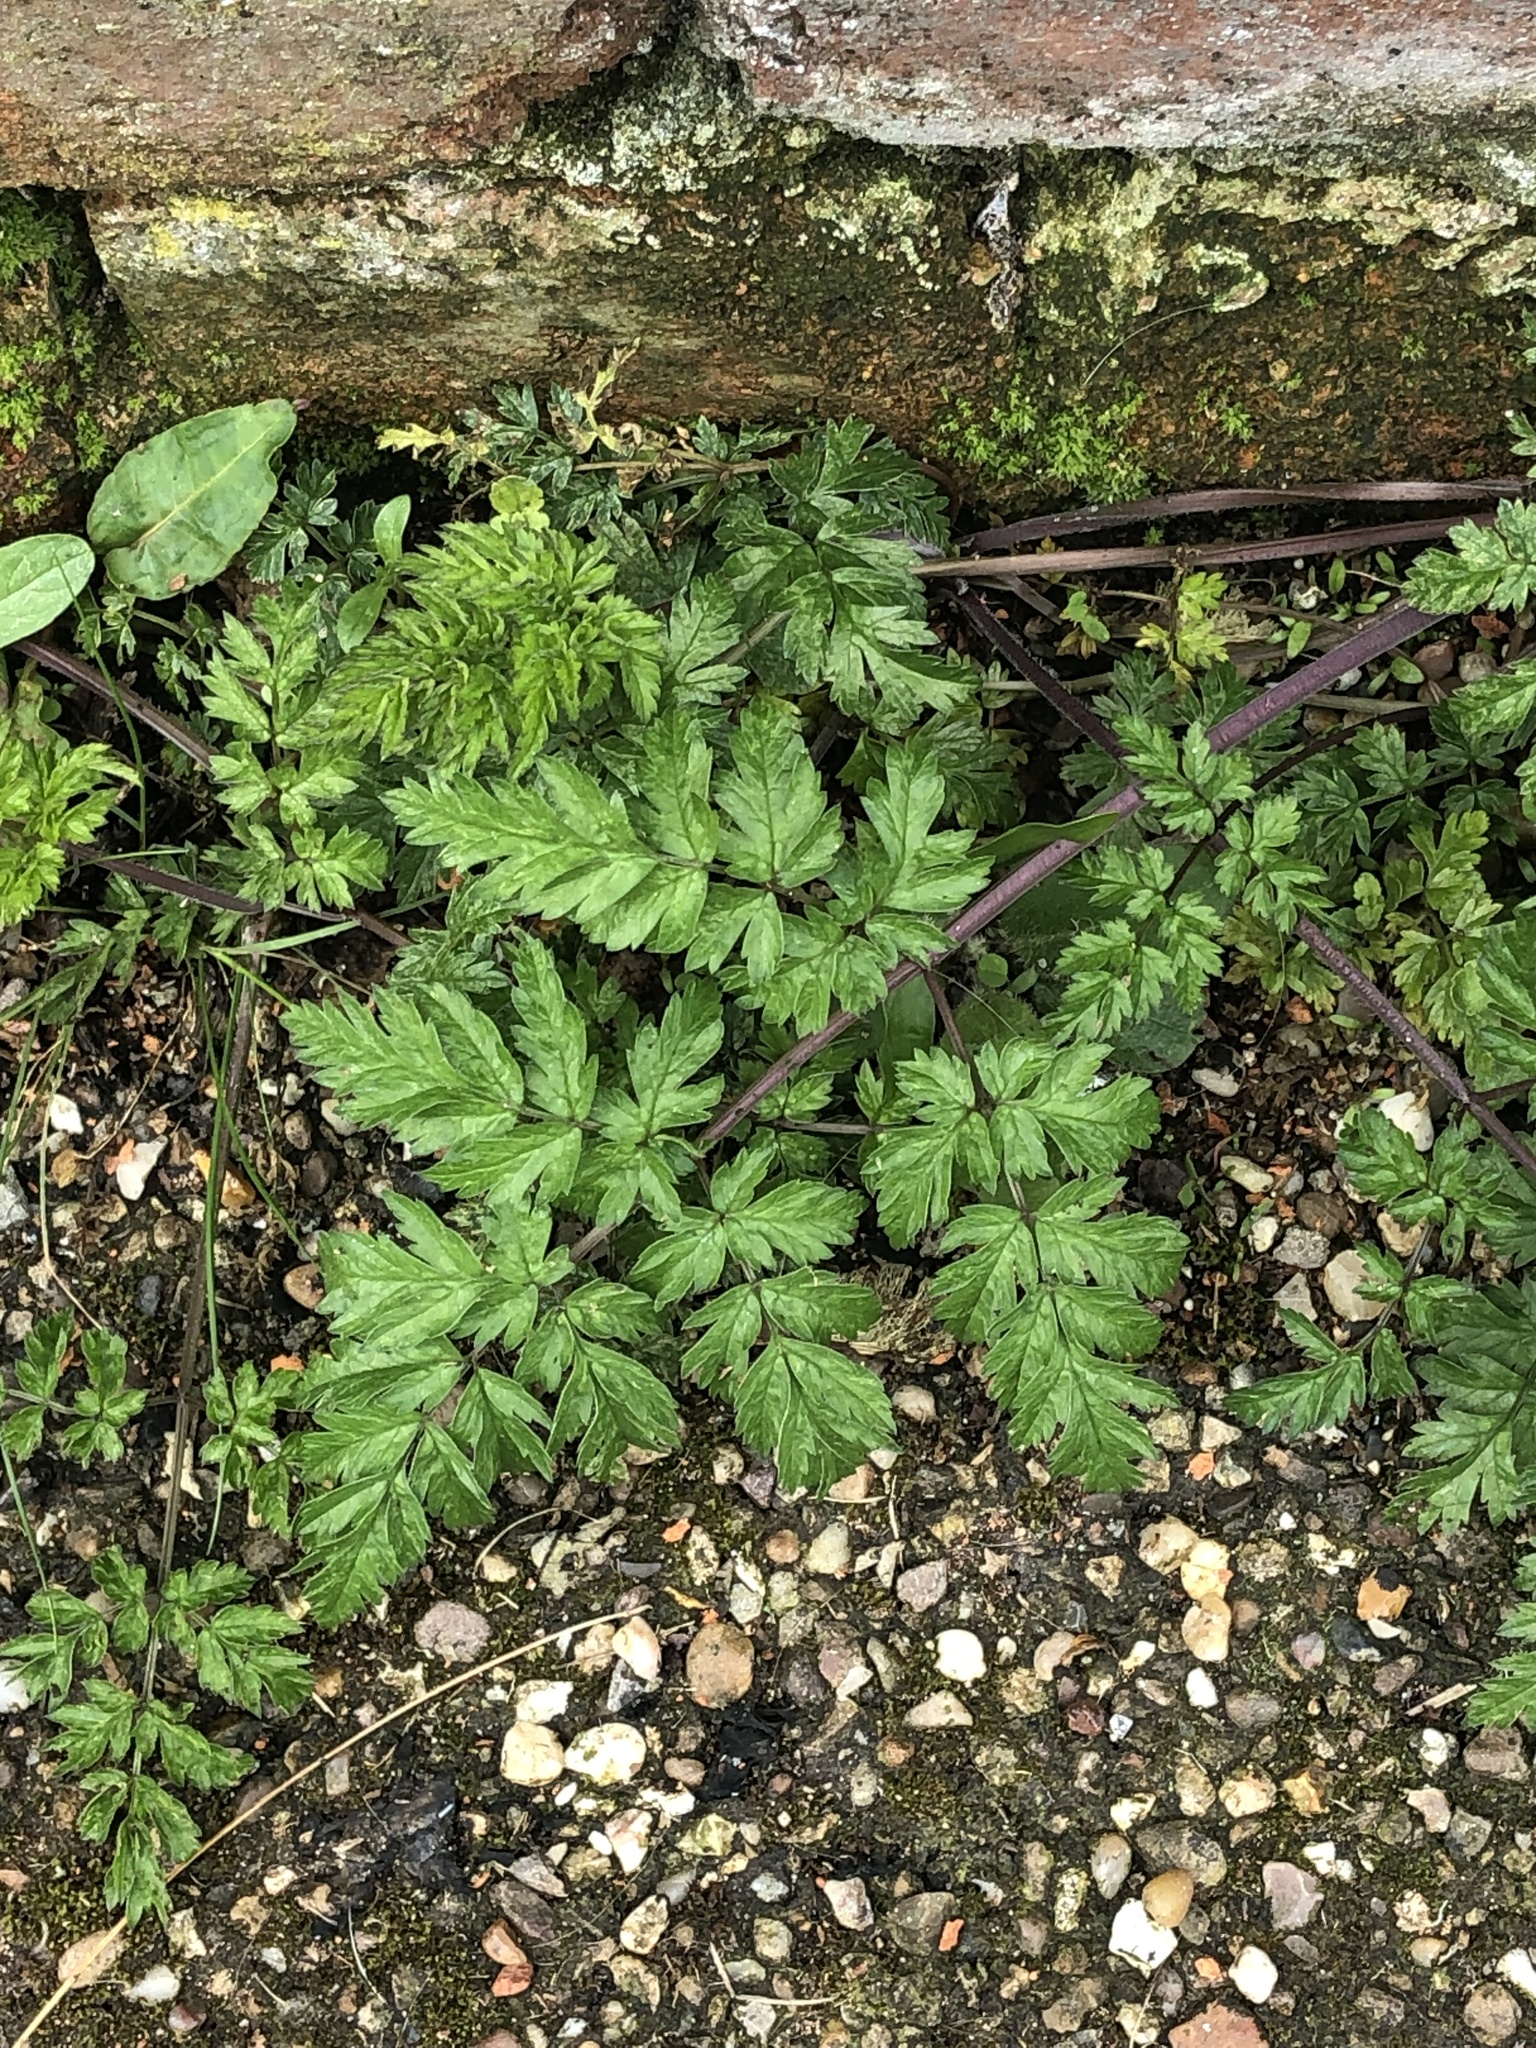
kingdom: Plantae
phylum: Tracheophyta
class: Magnoliopsida
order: Apiales
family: Apiaceae
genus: Anthriscus
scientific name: Anthriscus sylvestris
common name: Cow parsley
